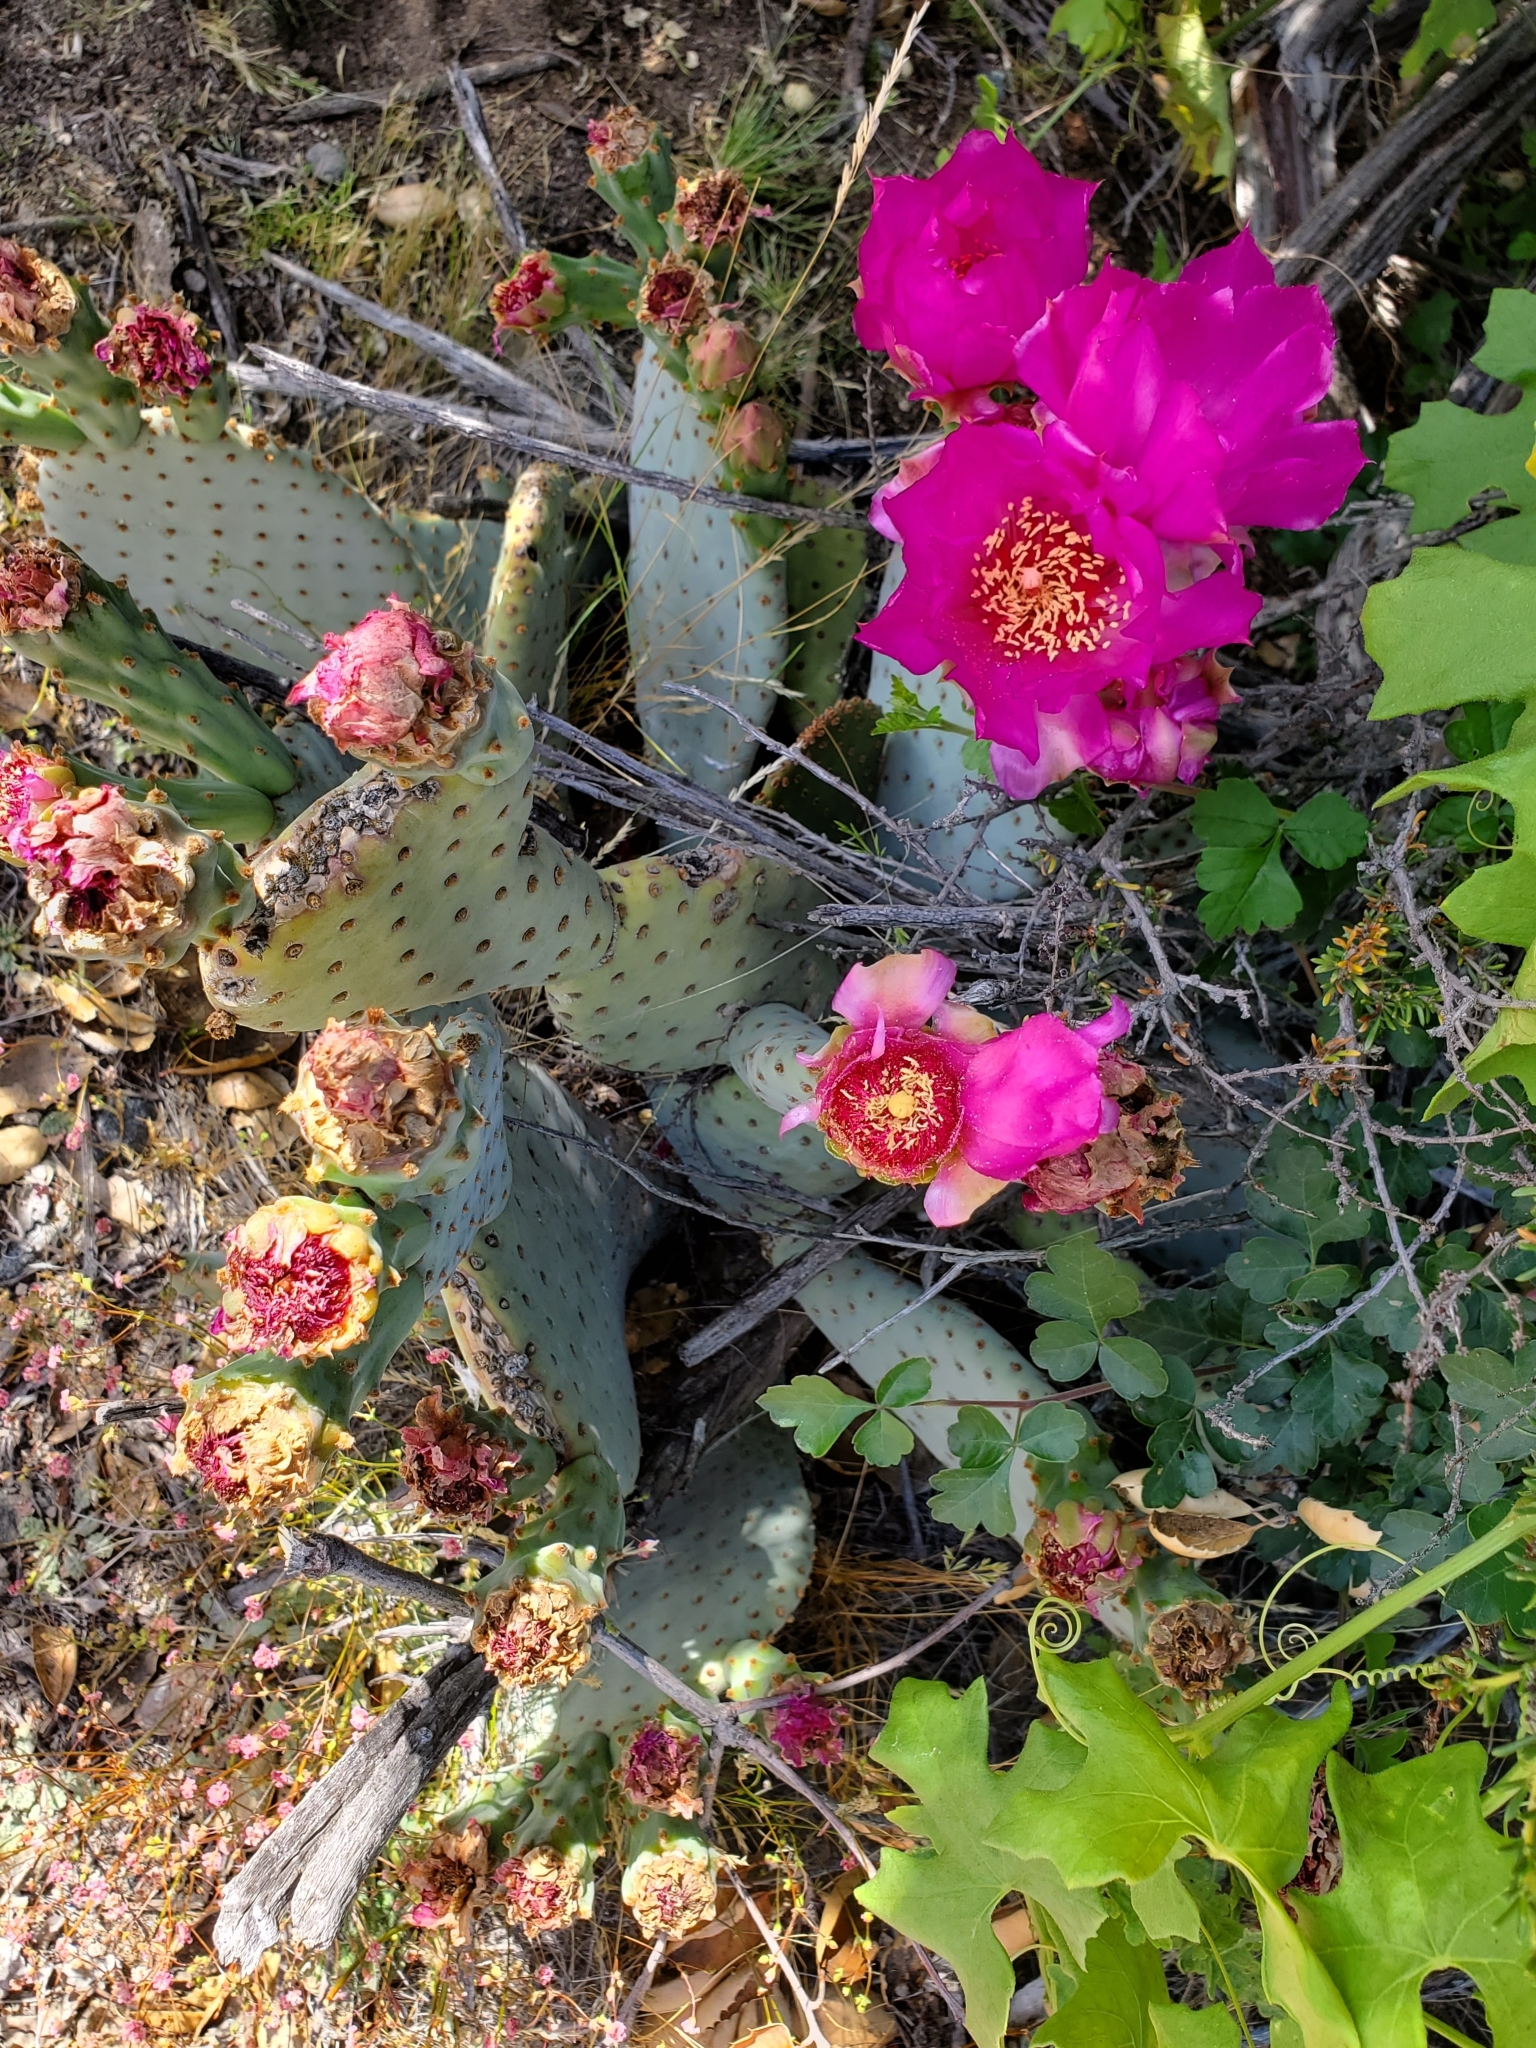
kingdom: Plantae
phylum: Tracheophyta
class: Magnoliopsida
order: Caryophyllales
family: Cactaceae
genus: Opuntia
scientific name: Opuntia basilaris
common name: Beavertail prickly-pear
